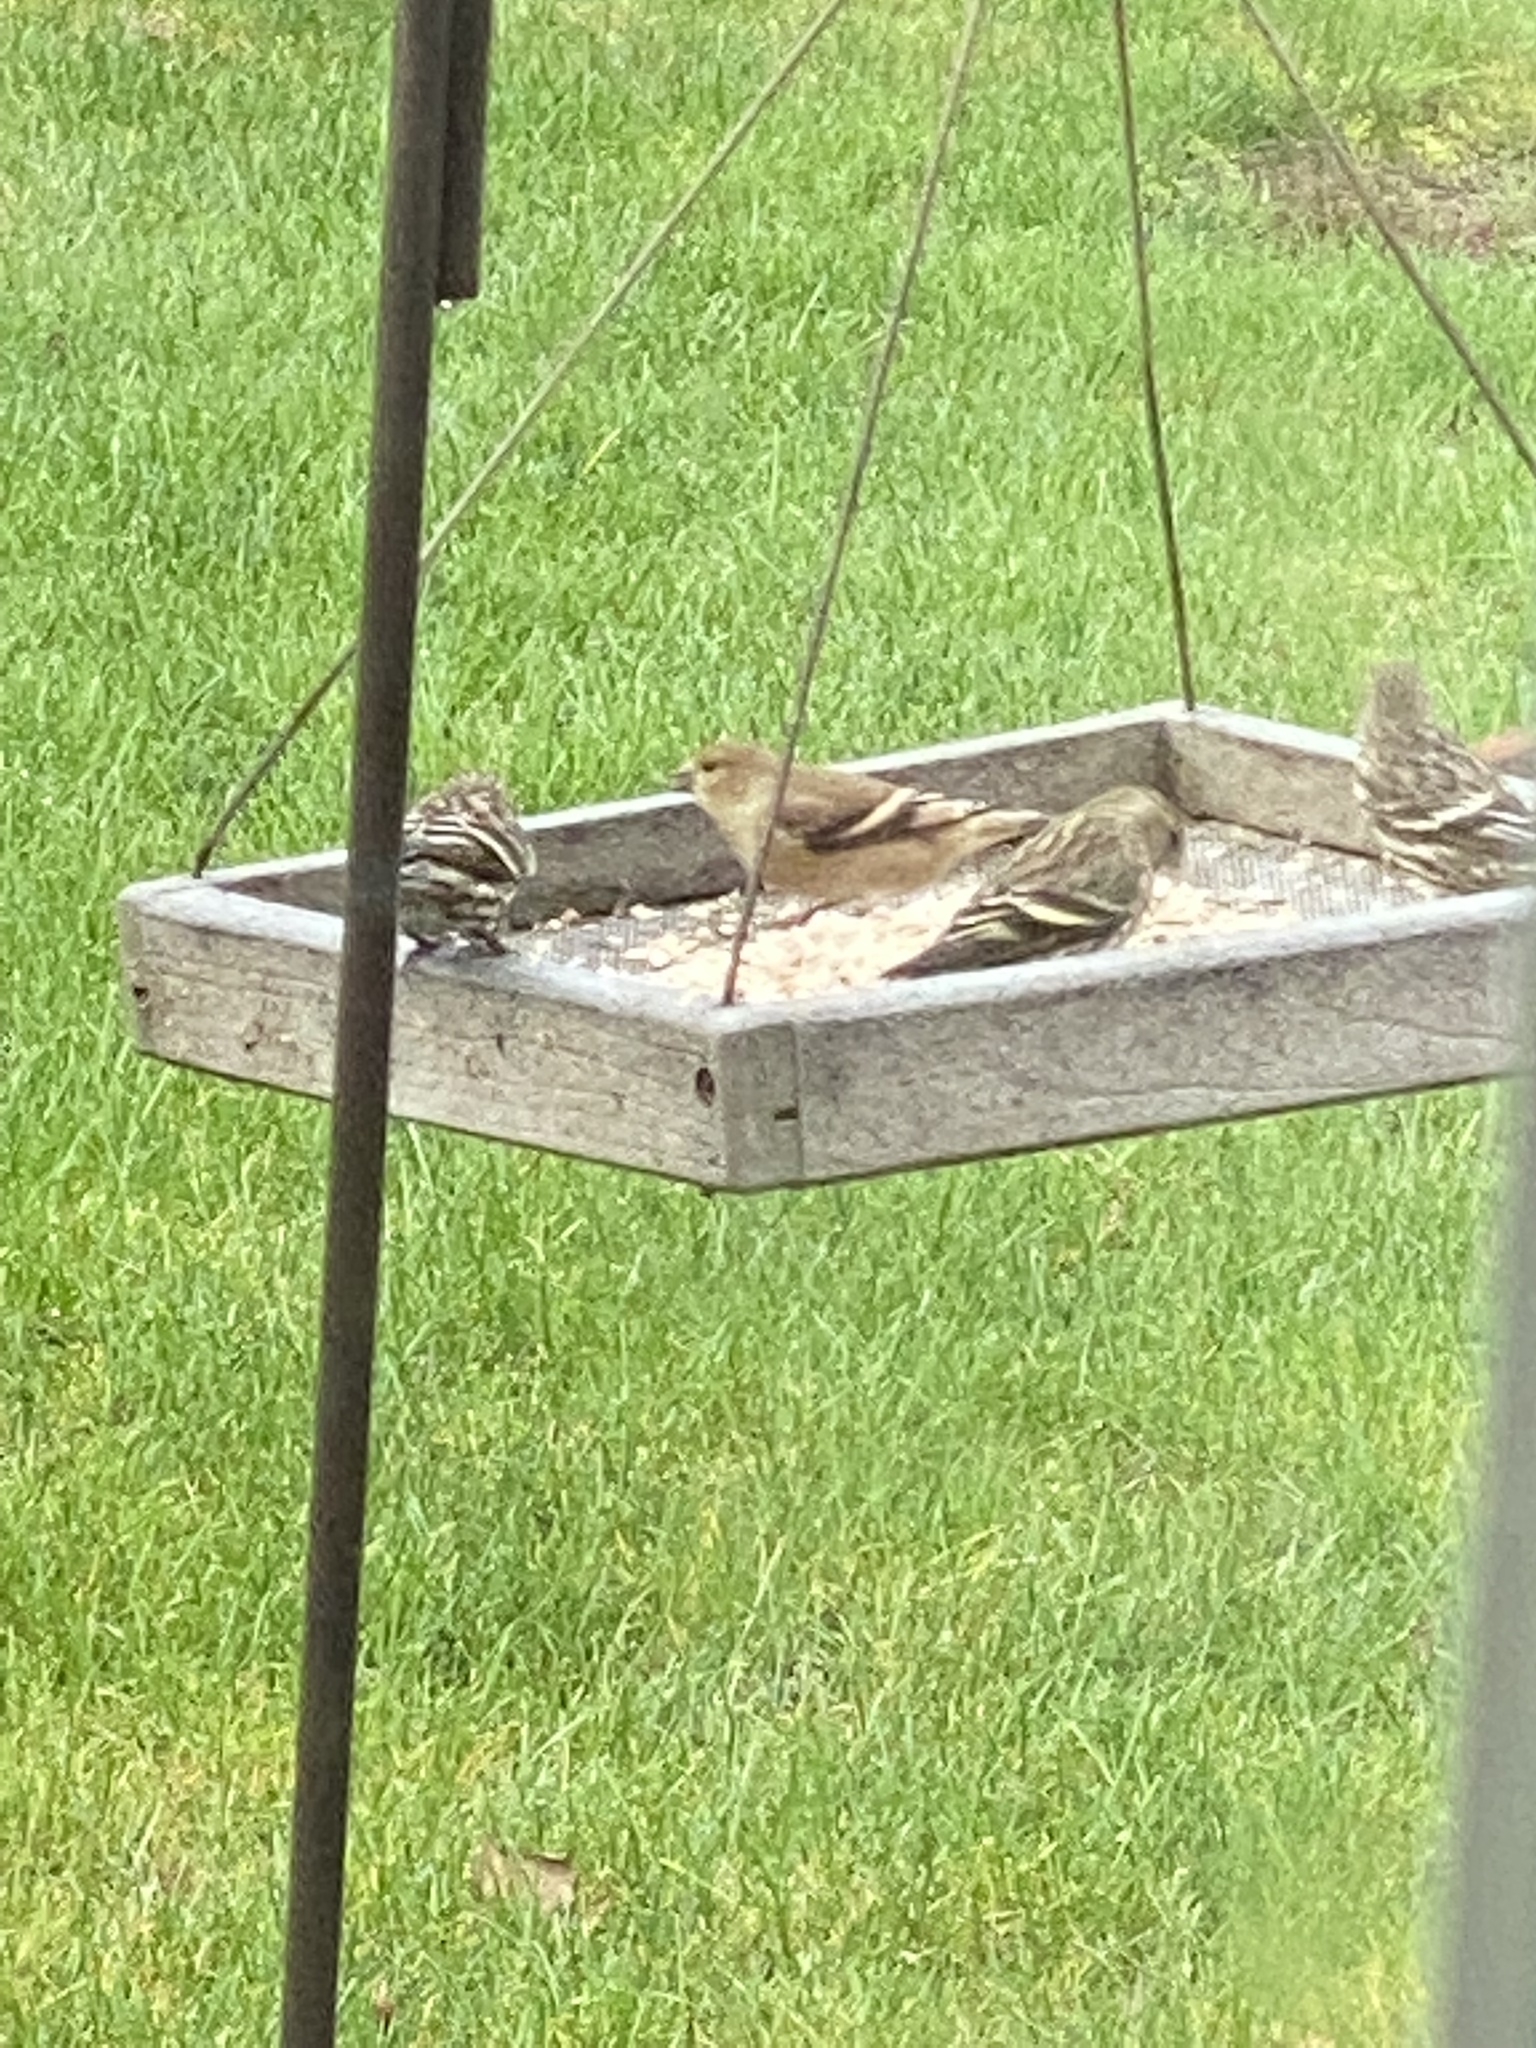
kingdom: Animalia
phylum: Chordata
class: Aves
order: Passeriformes
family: Fringillidae
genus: Spinus
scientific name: Spinus tristis
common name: American goldfinch
